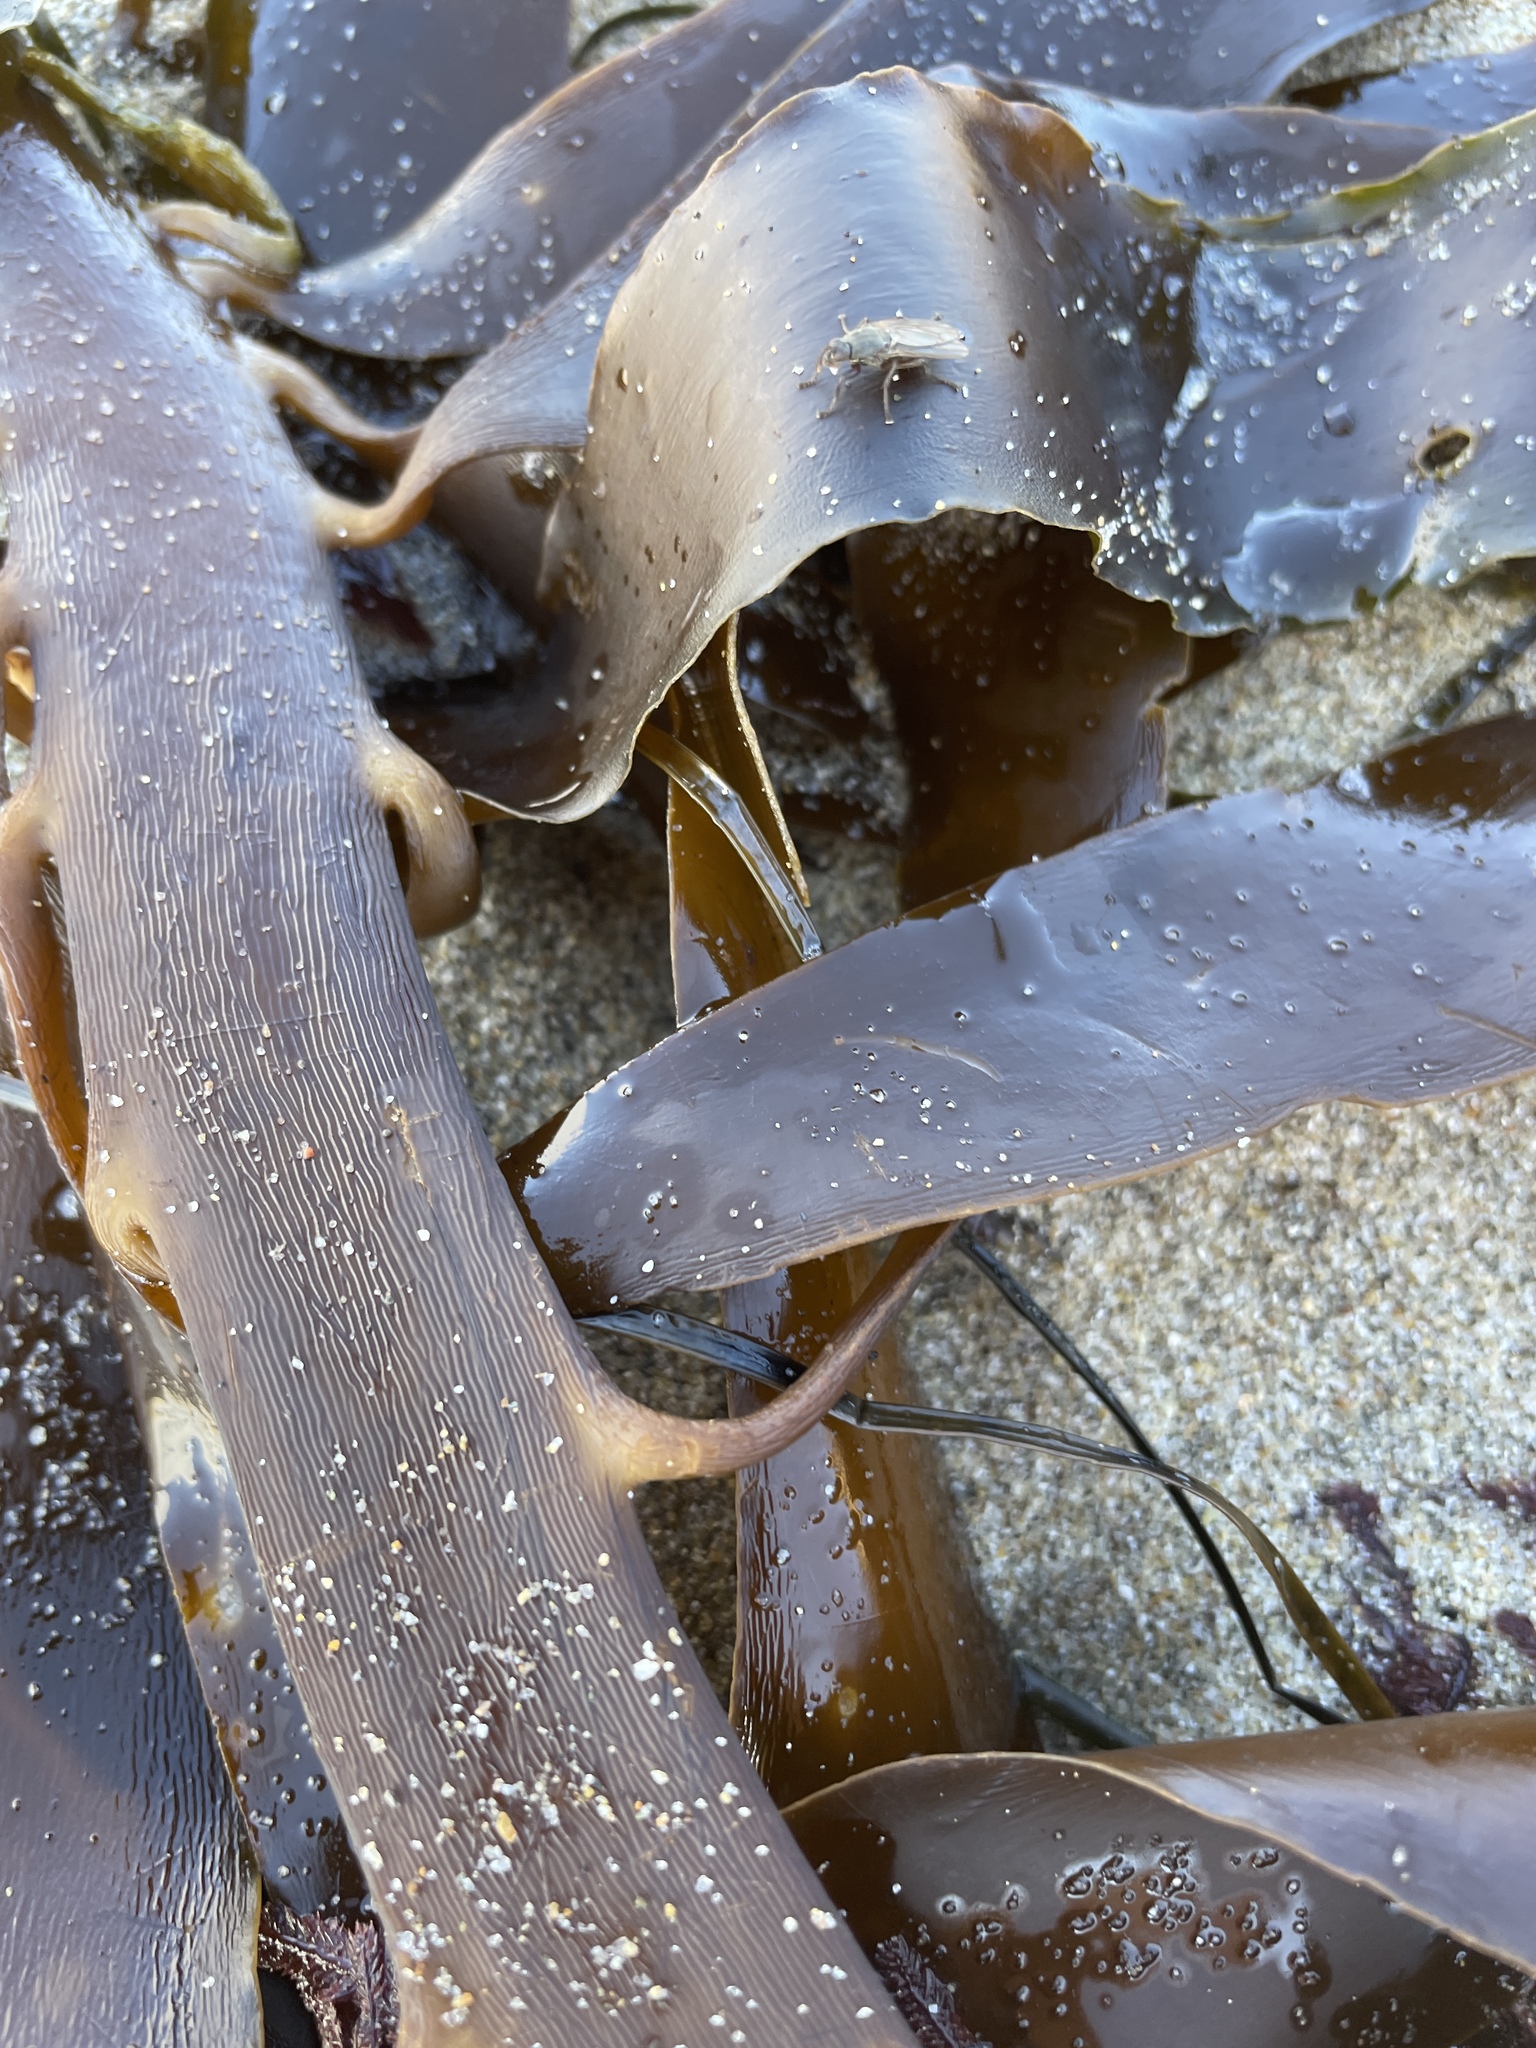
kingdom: Chromista
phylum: Ochrophyta
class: Phaeophyceae
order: Laminariales
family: Alariaceae
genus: Pterygophora
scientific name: Pterygophora californica
